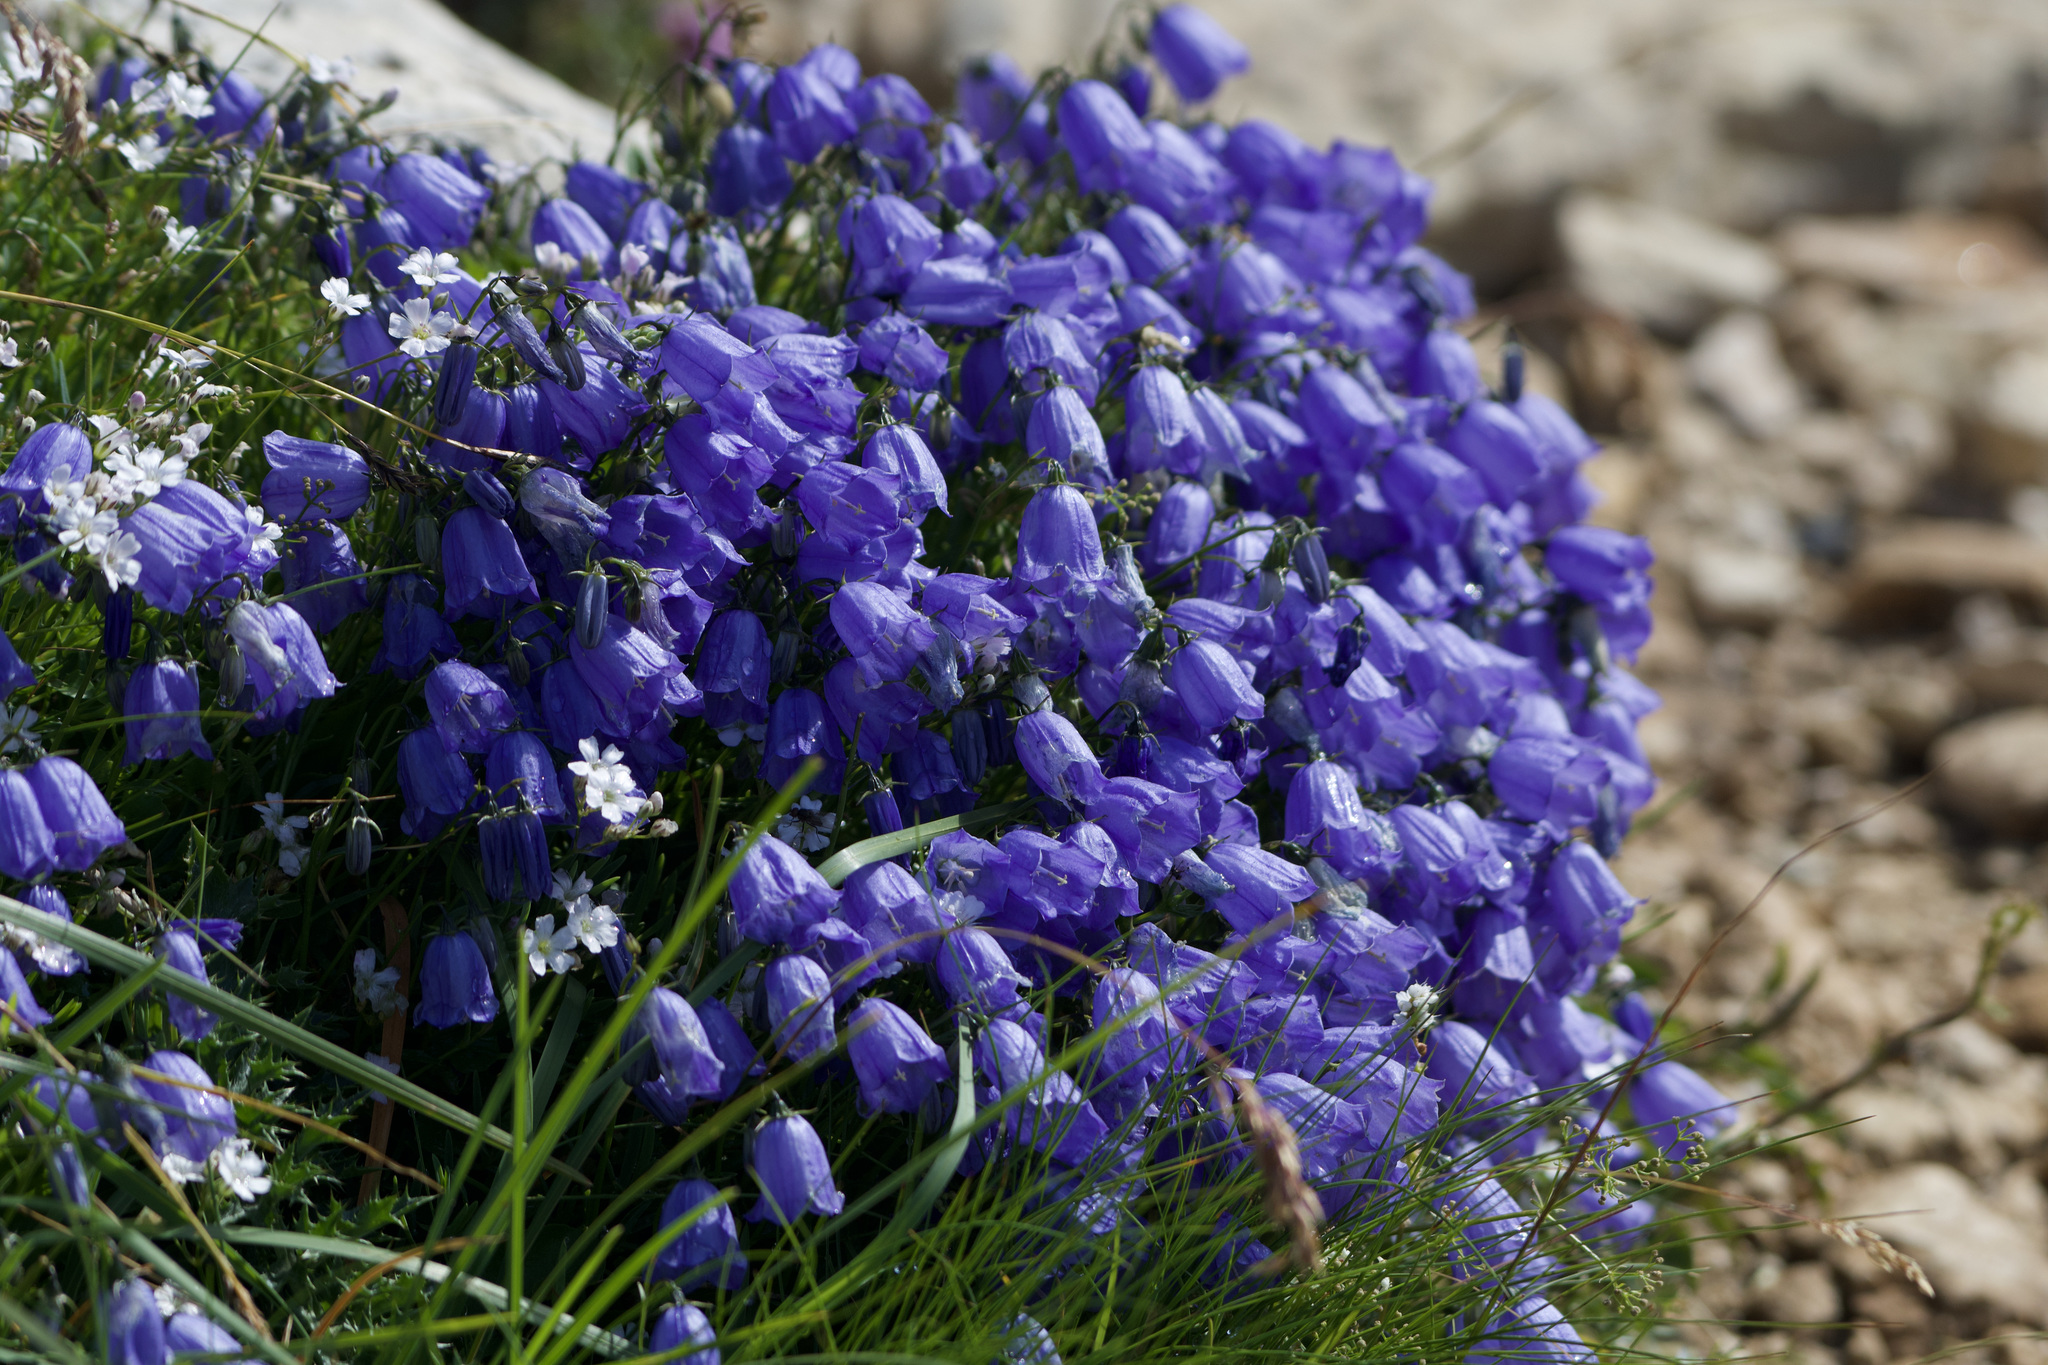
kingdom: Plantae
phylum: Tracheophyta
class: Magnoliopsida
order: Asterales
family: Campanulaceae
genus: Campanula
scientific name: Campanula cochleariifolia
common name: Fairies'-thimbles
